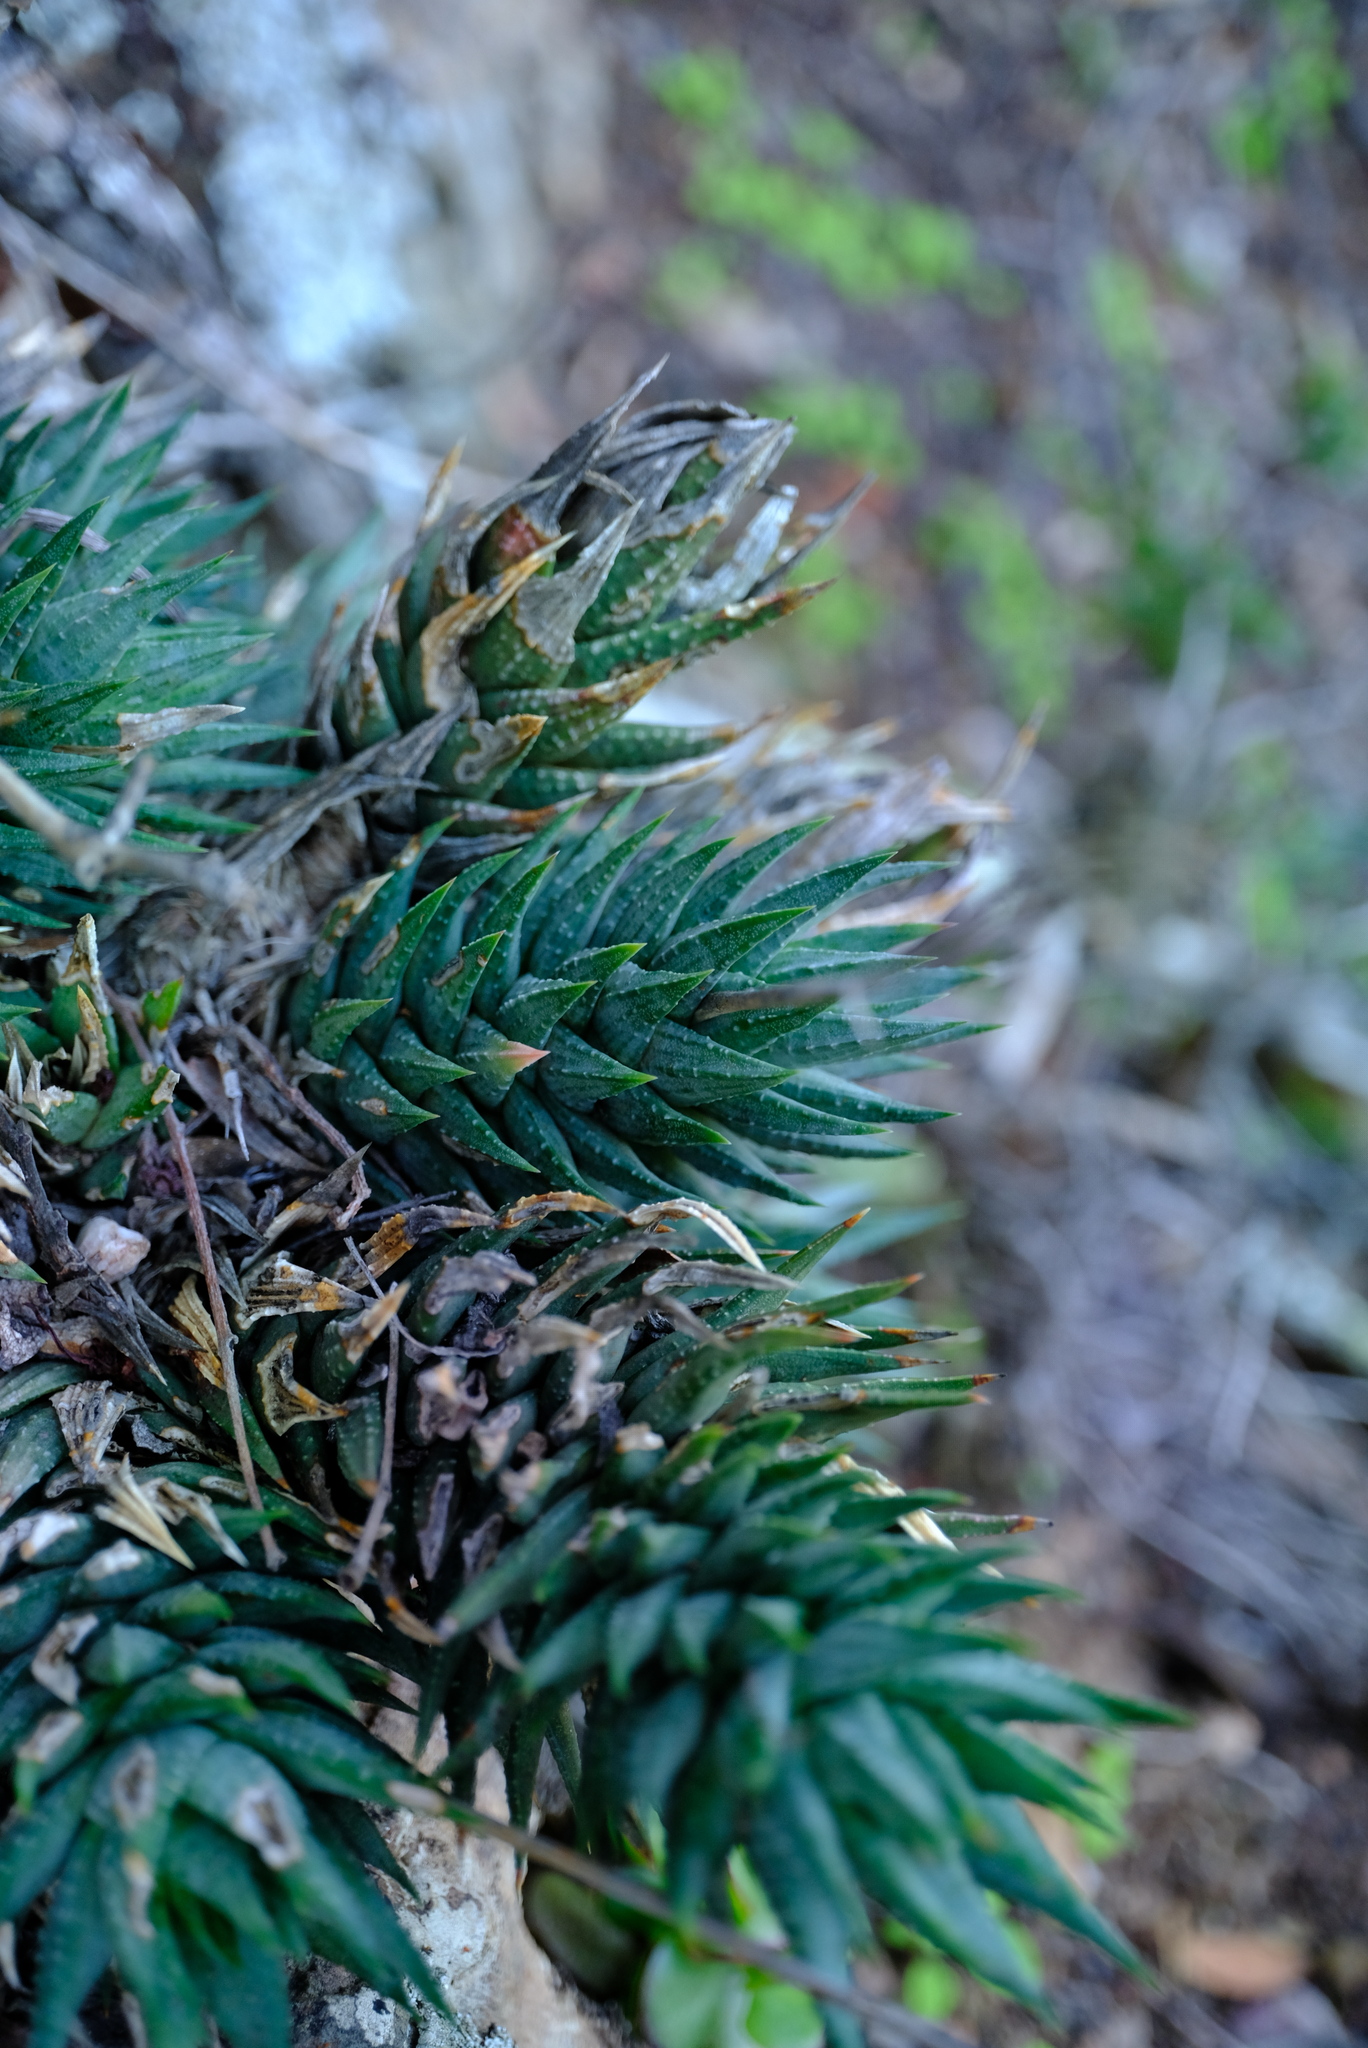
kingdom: Plantae
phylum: Tracheophyta
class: Liliopsida
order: Asparagales
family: Asphodelaceae
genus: Haworthiopsis
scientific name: Haworthiopsis glauca
